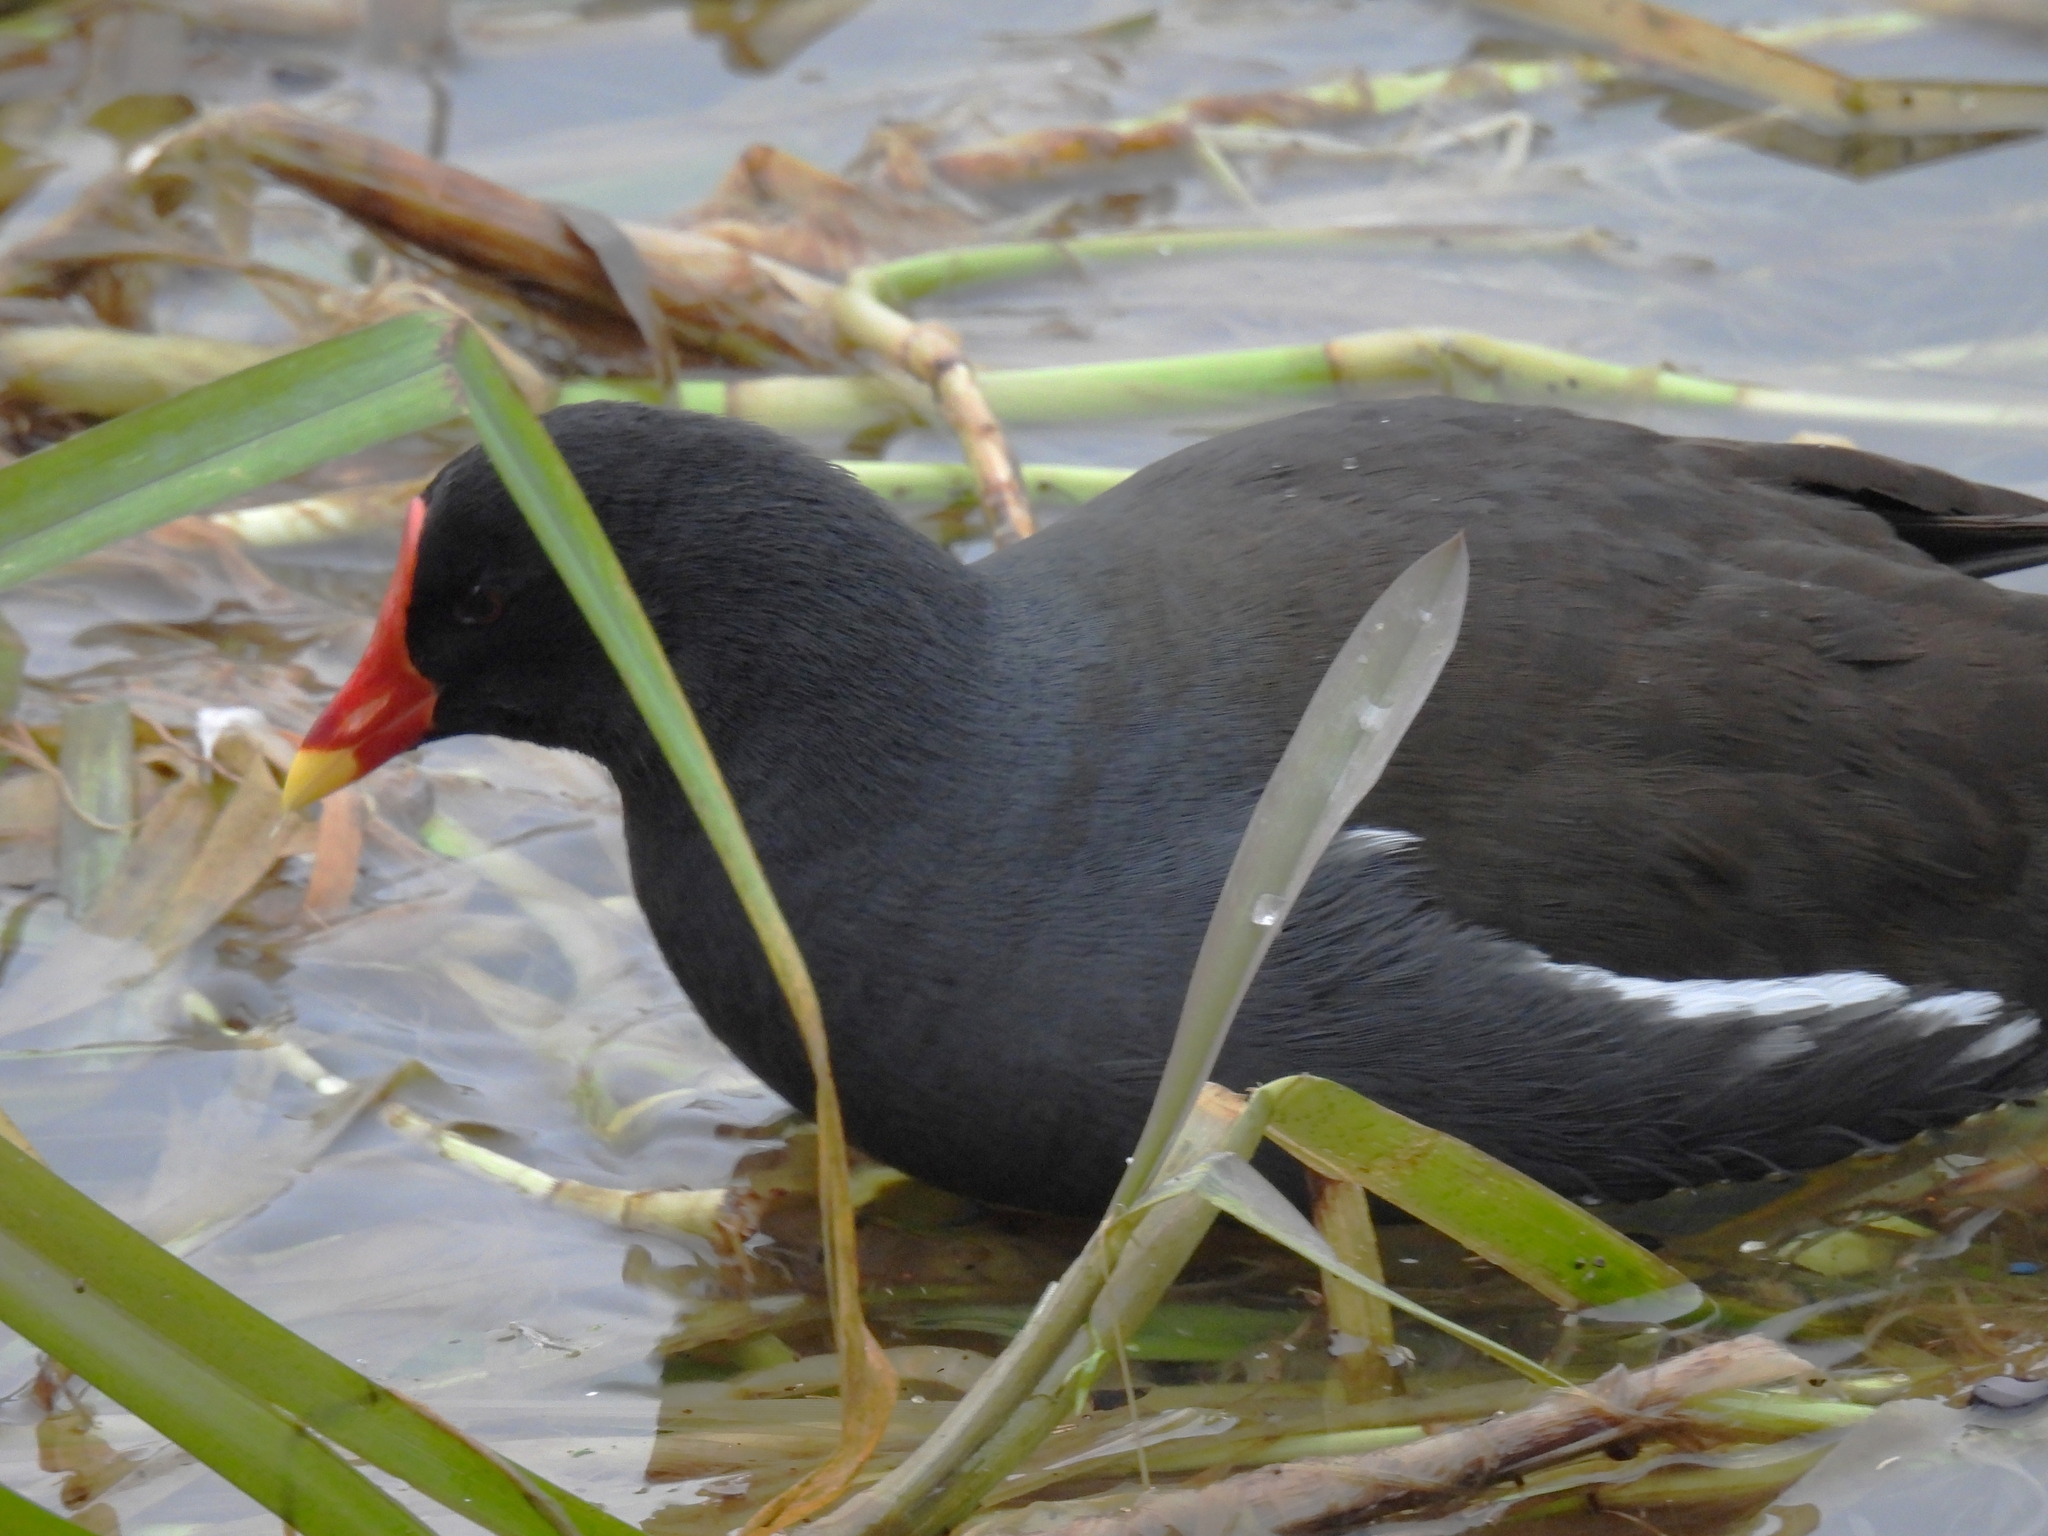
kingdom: Animalia
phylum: Chordata
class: Aves
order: Gruiformes
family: Rallidae
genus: Gallinula
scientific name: Gallinula chloropus
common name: Common moorhen
